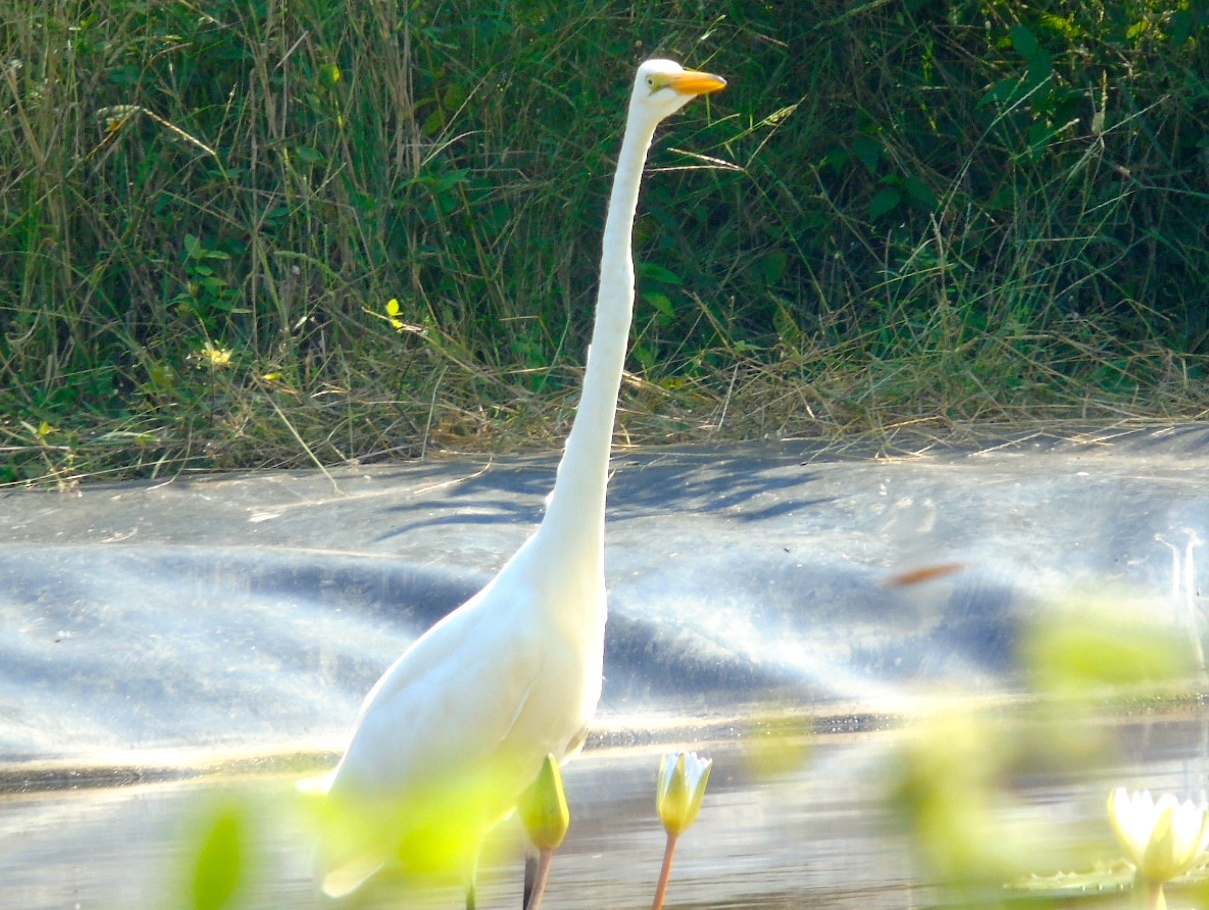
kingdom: Animalia
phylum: Chordata
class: Aves
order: Pelecaniformes
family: Ardeidae
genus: Ardea
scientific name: Ardea alba
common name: Great egret
